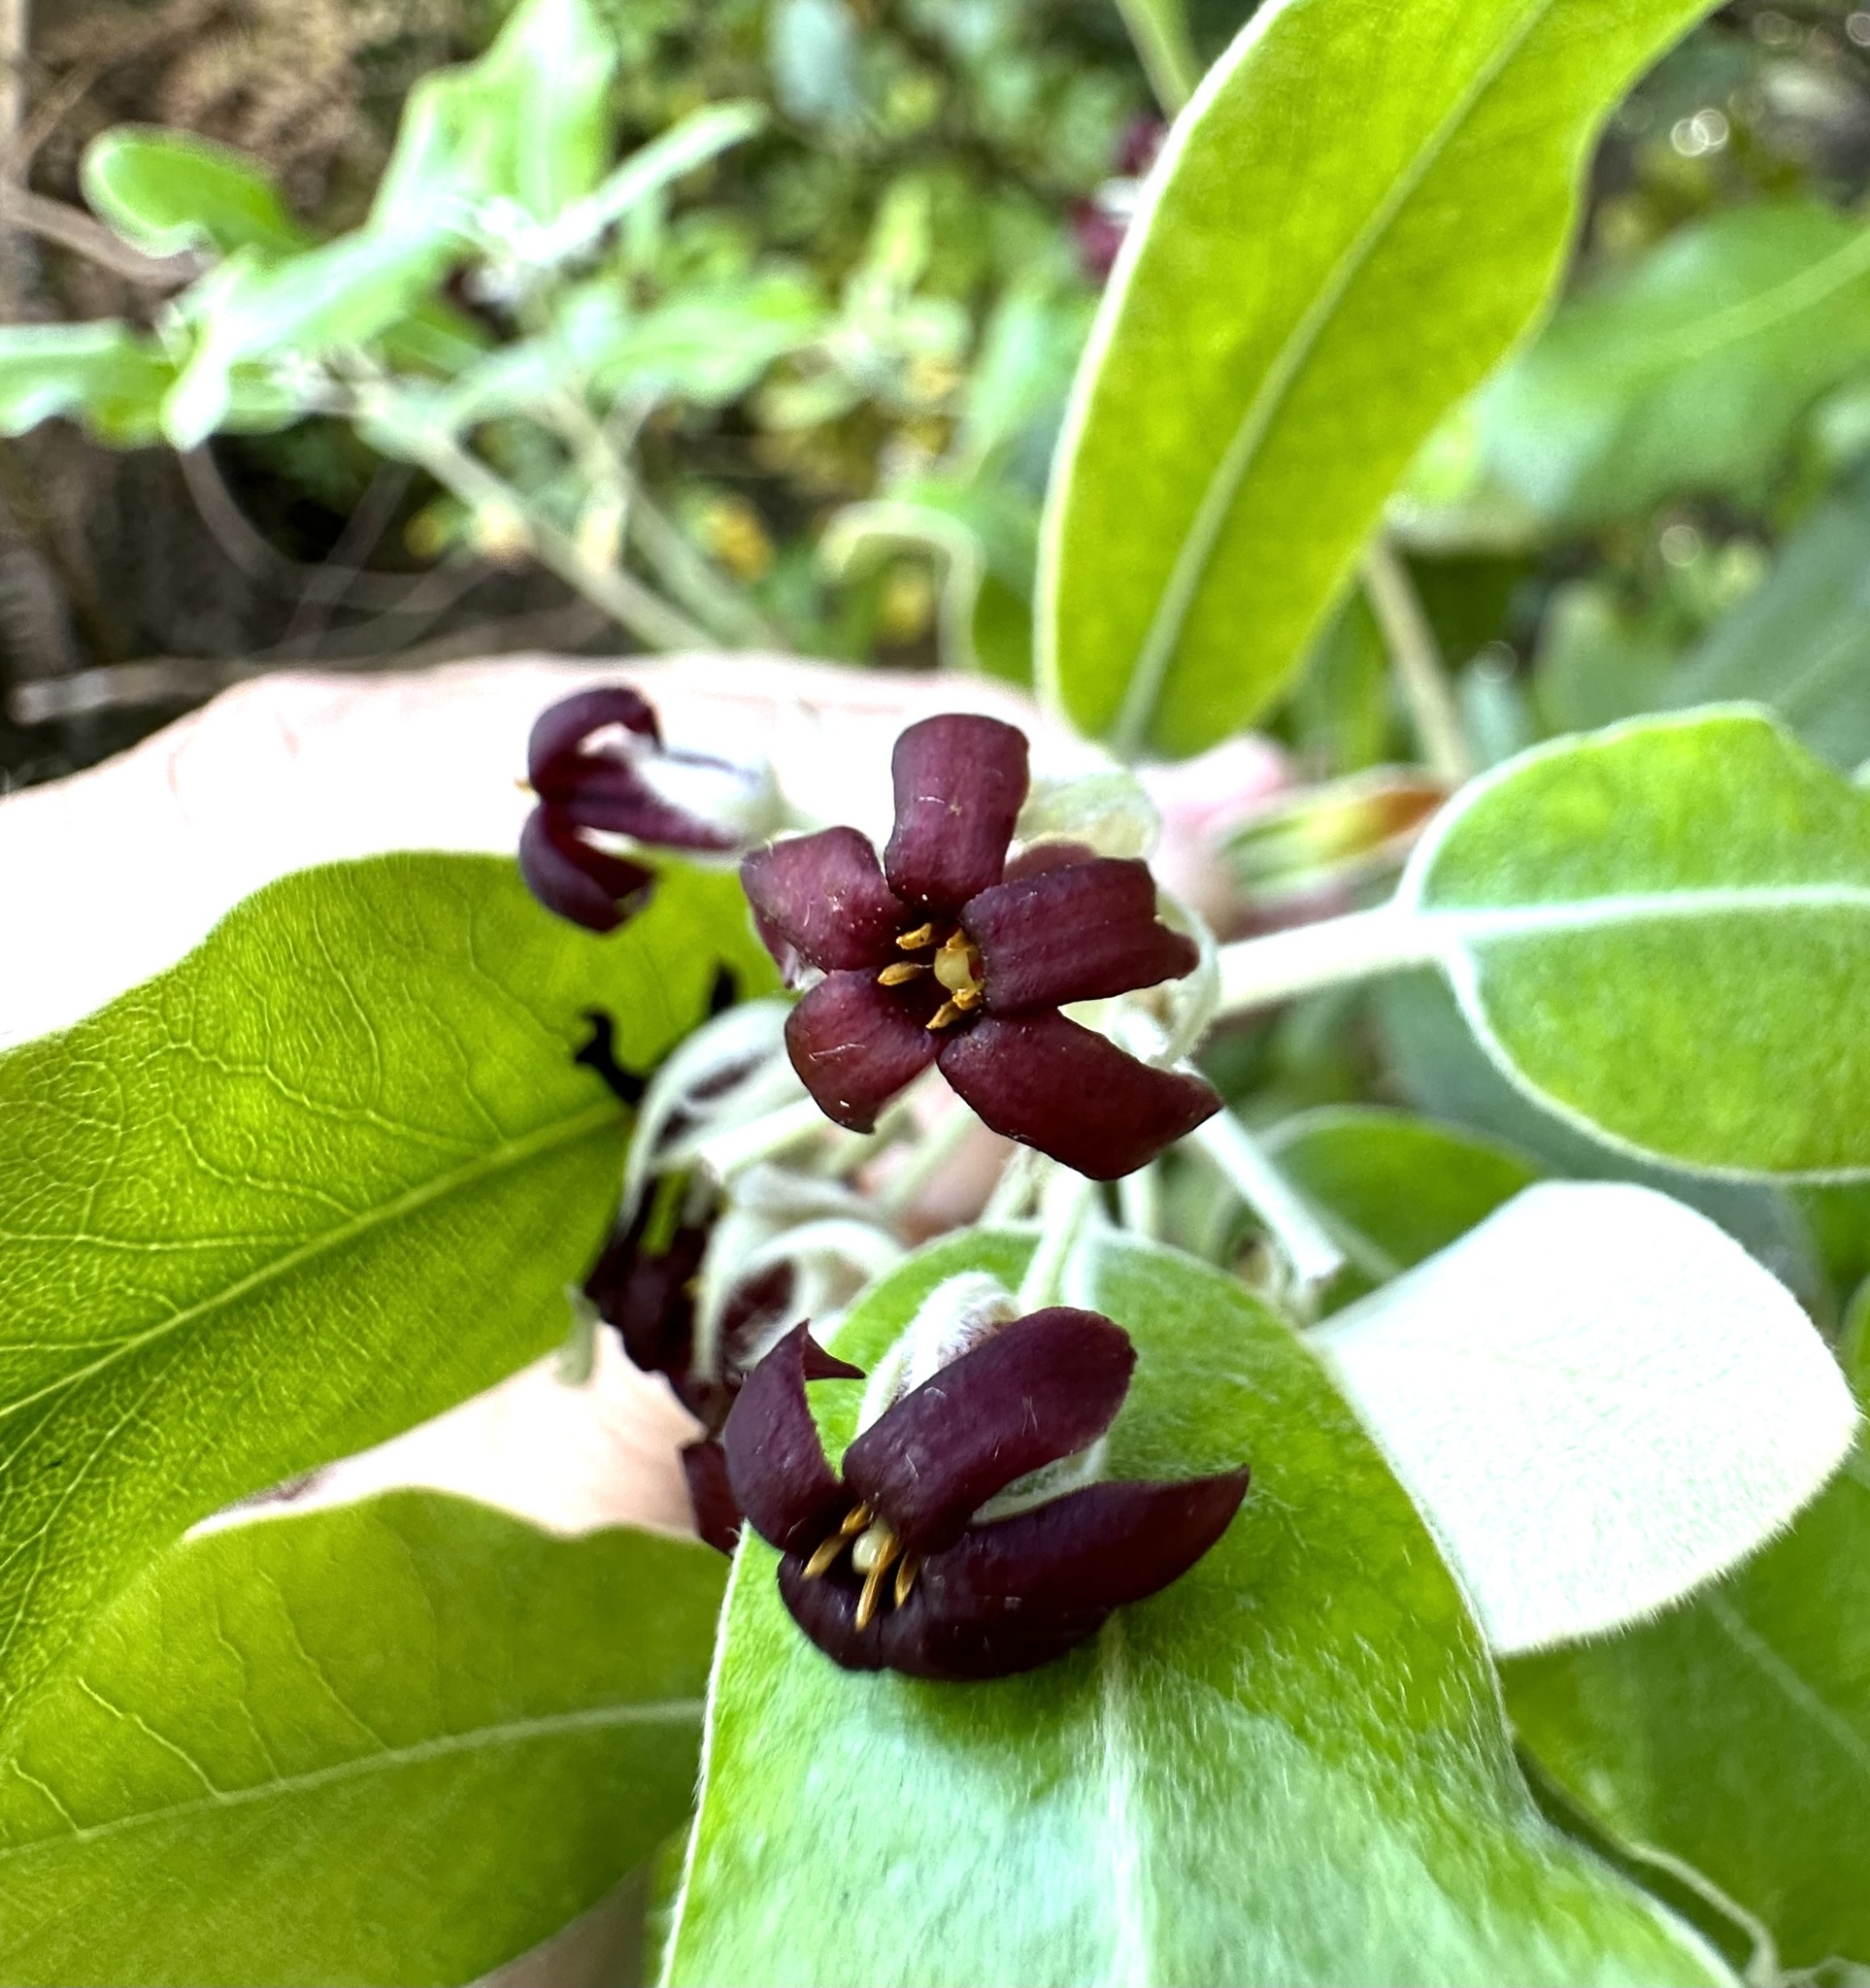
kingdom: Plantae
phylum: Tracheophyta
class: Magnoliopsida
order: Apiales
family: Pittosporaceae
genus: Pittosporum
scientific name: Pittosporum ralphii
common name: Ralph's desertwillow
